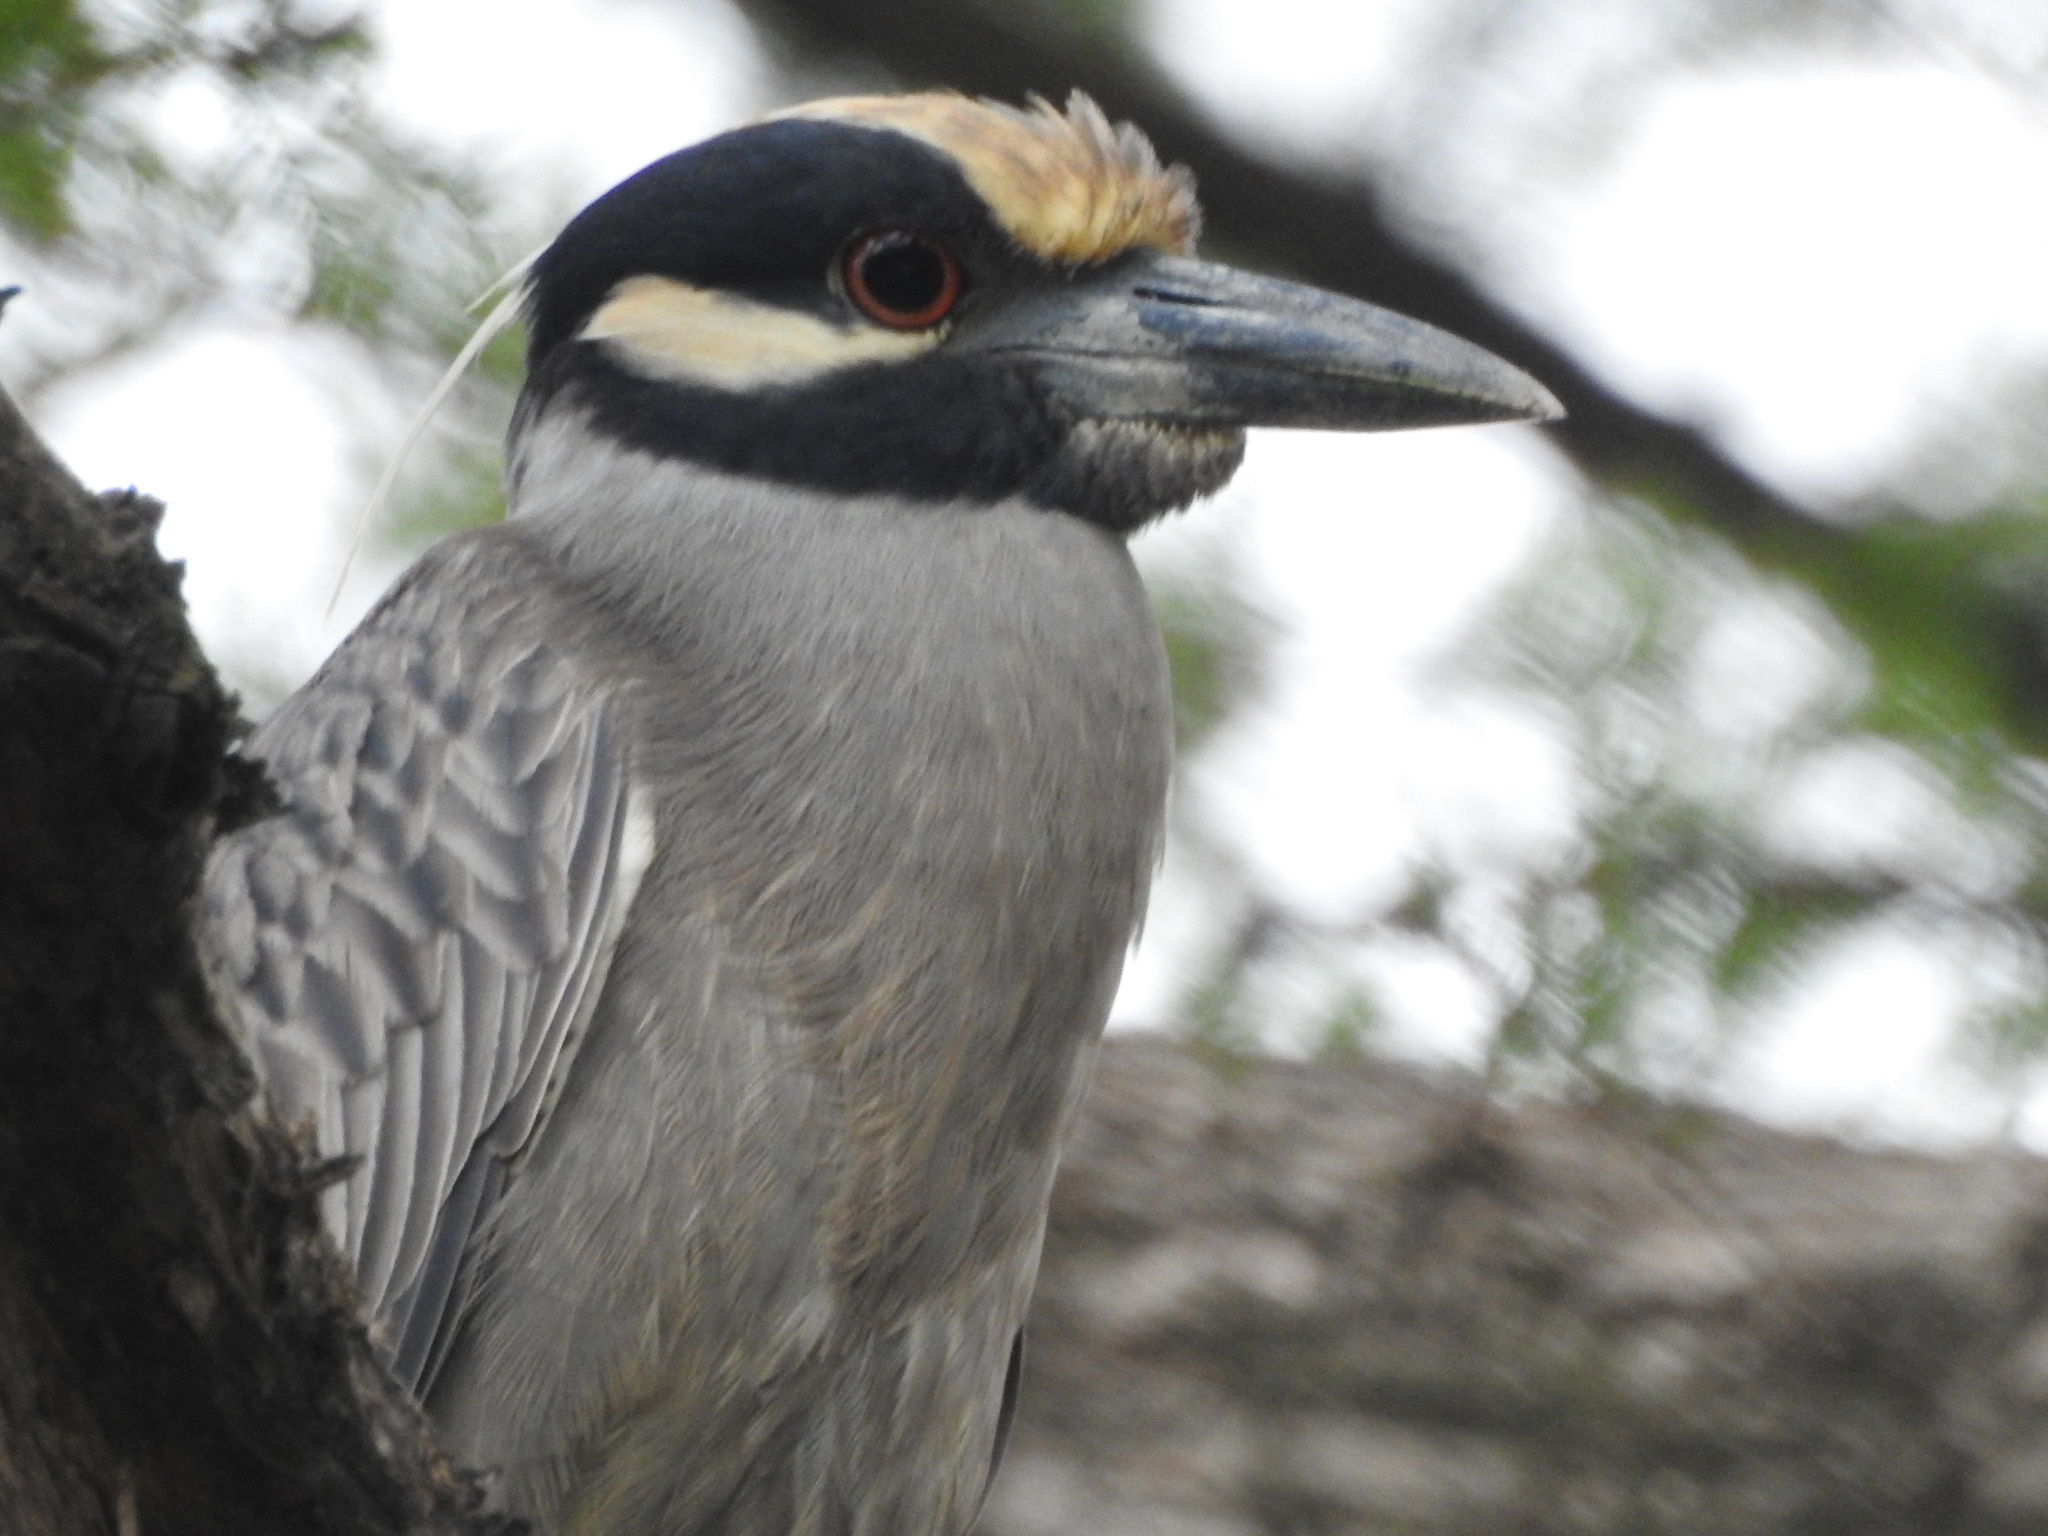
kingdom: Animalia
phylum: Chordata
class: Aves
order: Pelecaniformes
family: Ardeidae
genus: Nyctanassa
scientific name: Nyctanassa violacea
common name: Yellow-crowned night heron
